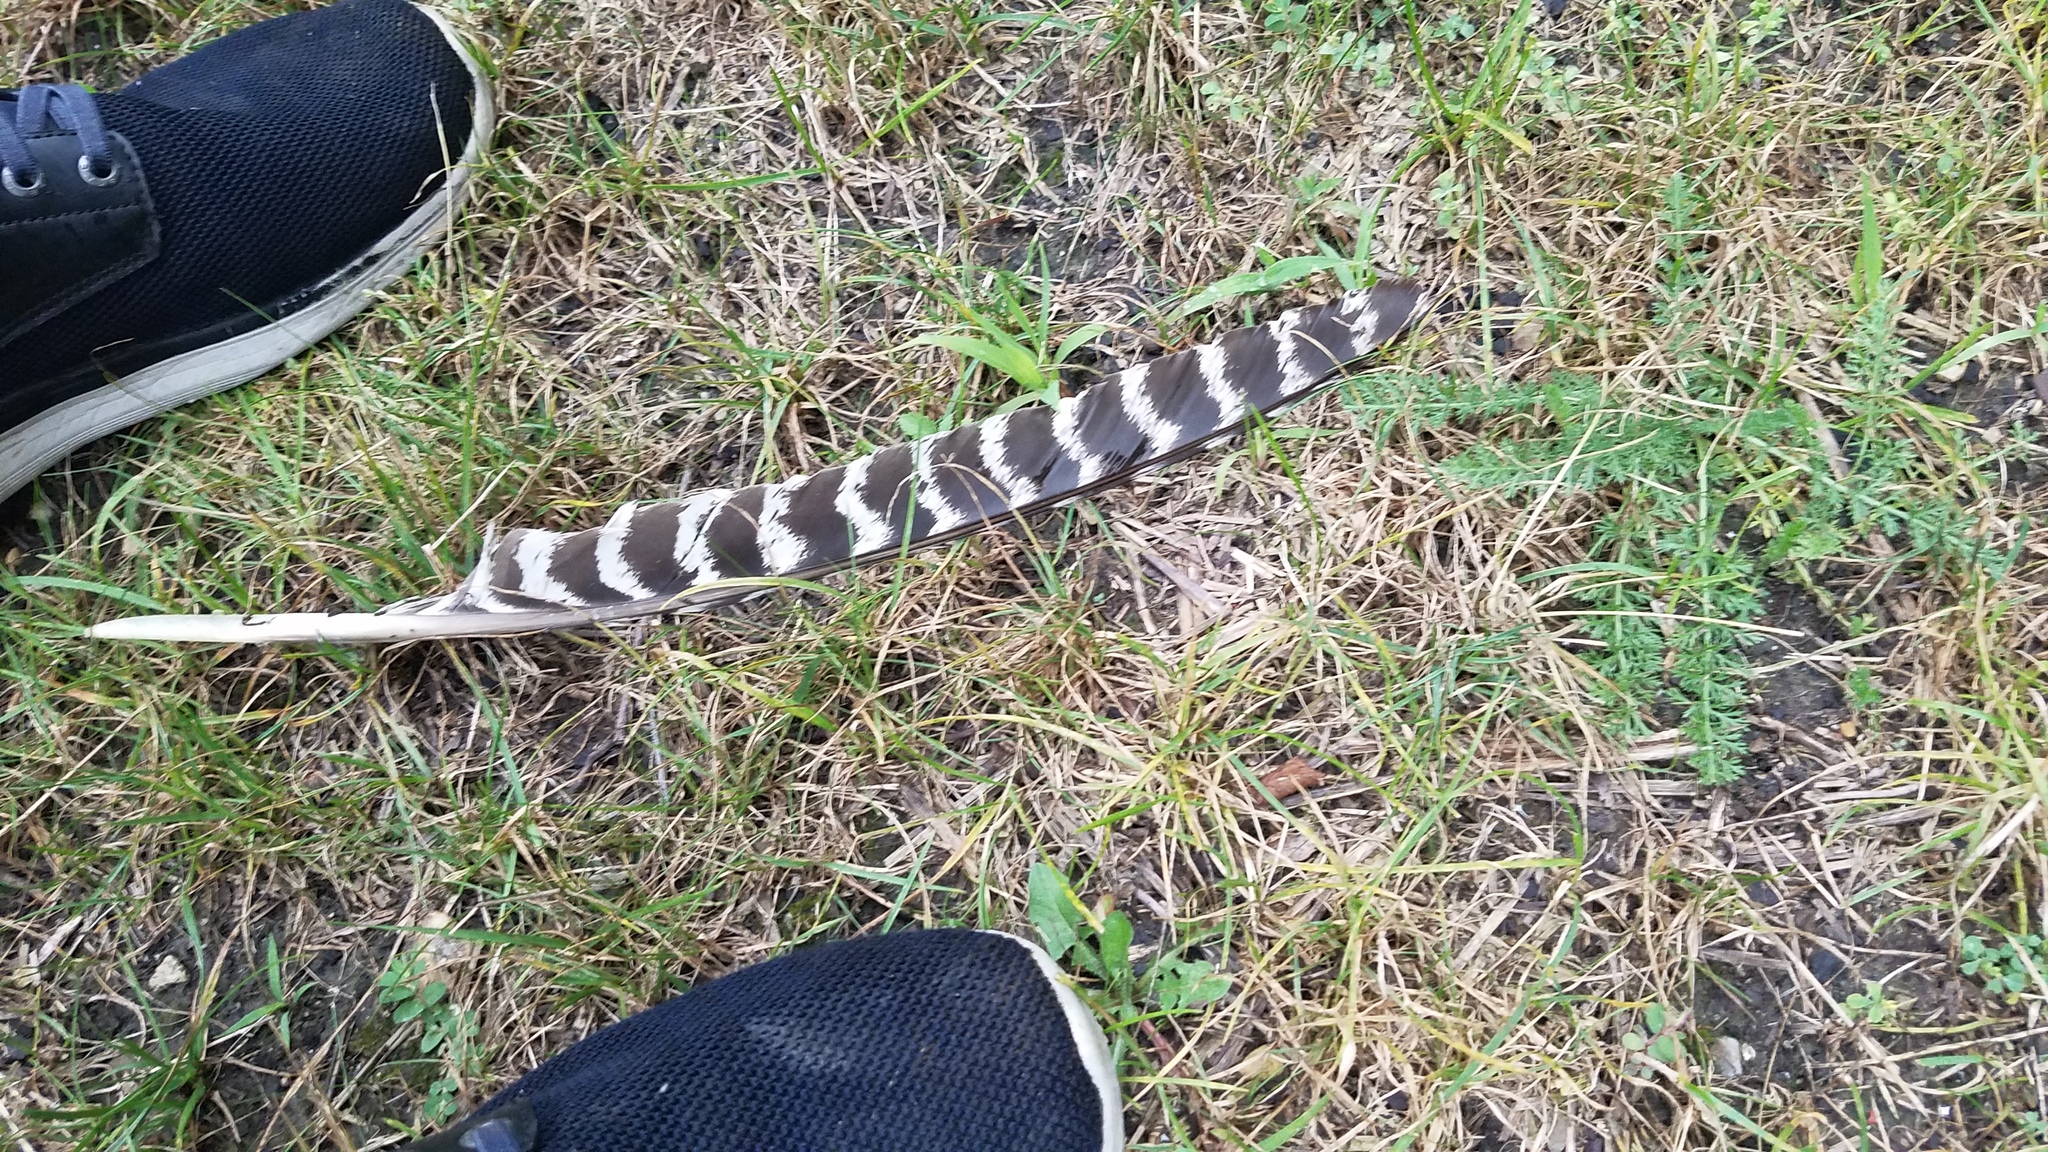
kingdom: Animalia
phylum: Chordata
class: Aves
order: Galliformes
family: Phasianidae
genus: Meleagris
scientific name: Meleagris gallopavo
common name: Wild turkey
